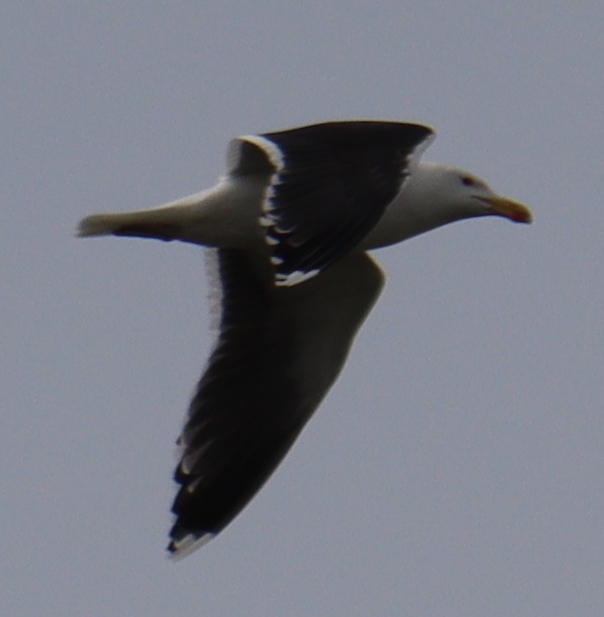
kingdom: Animalia
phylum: Chordata
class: Aves
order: Charadriiformes
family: Laridae
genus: Larus
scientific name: Larus marinus
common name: Great black-backed gull
